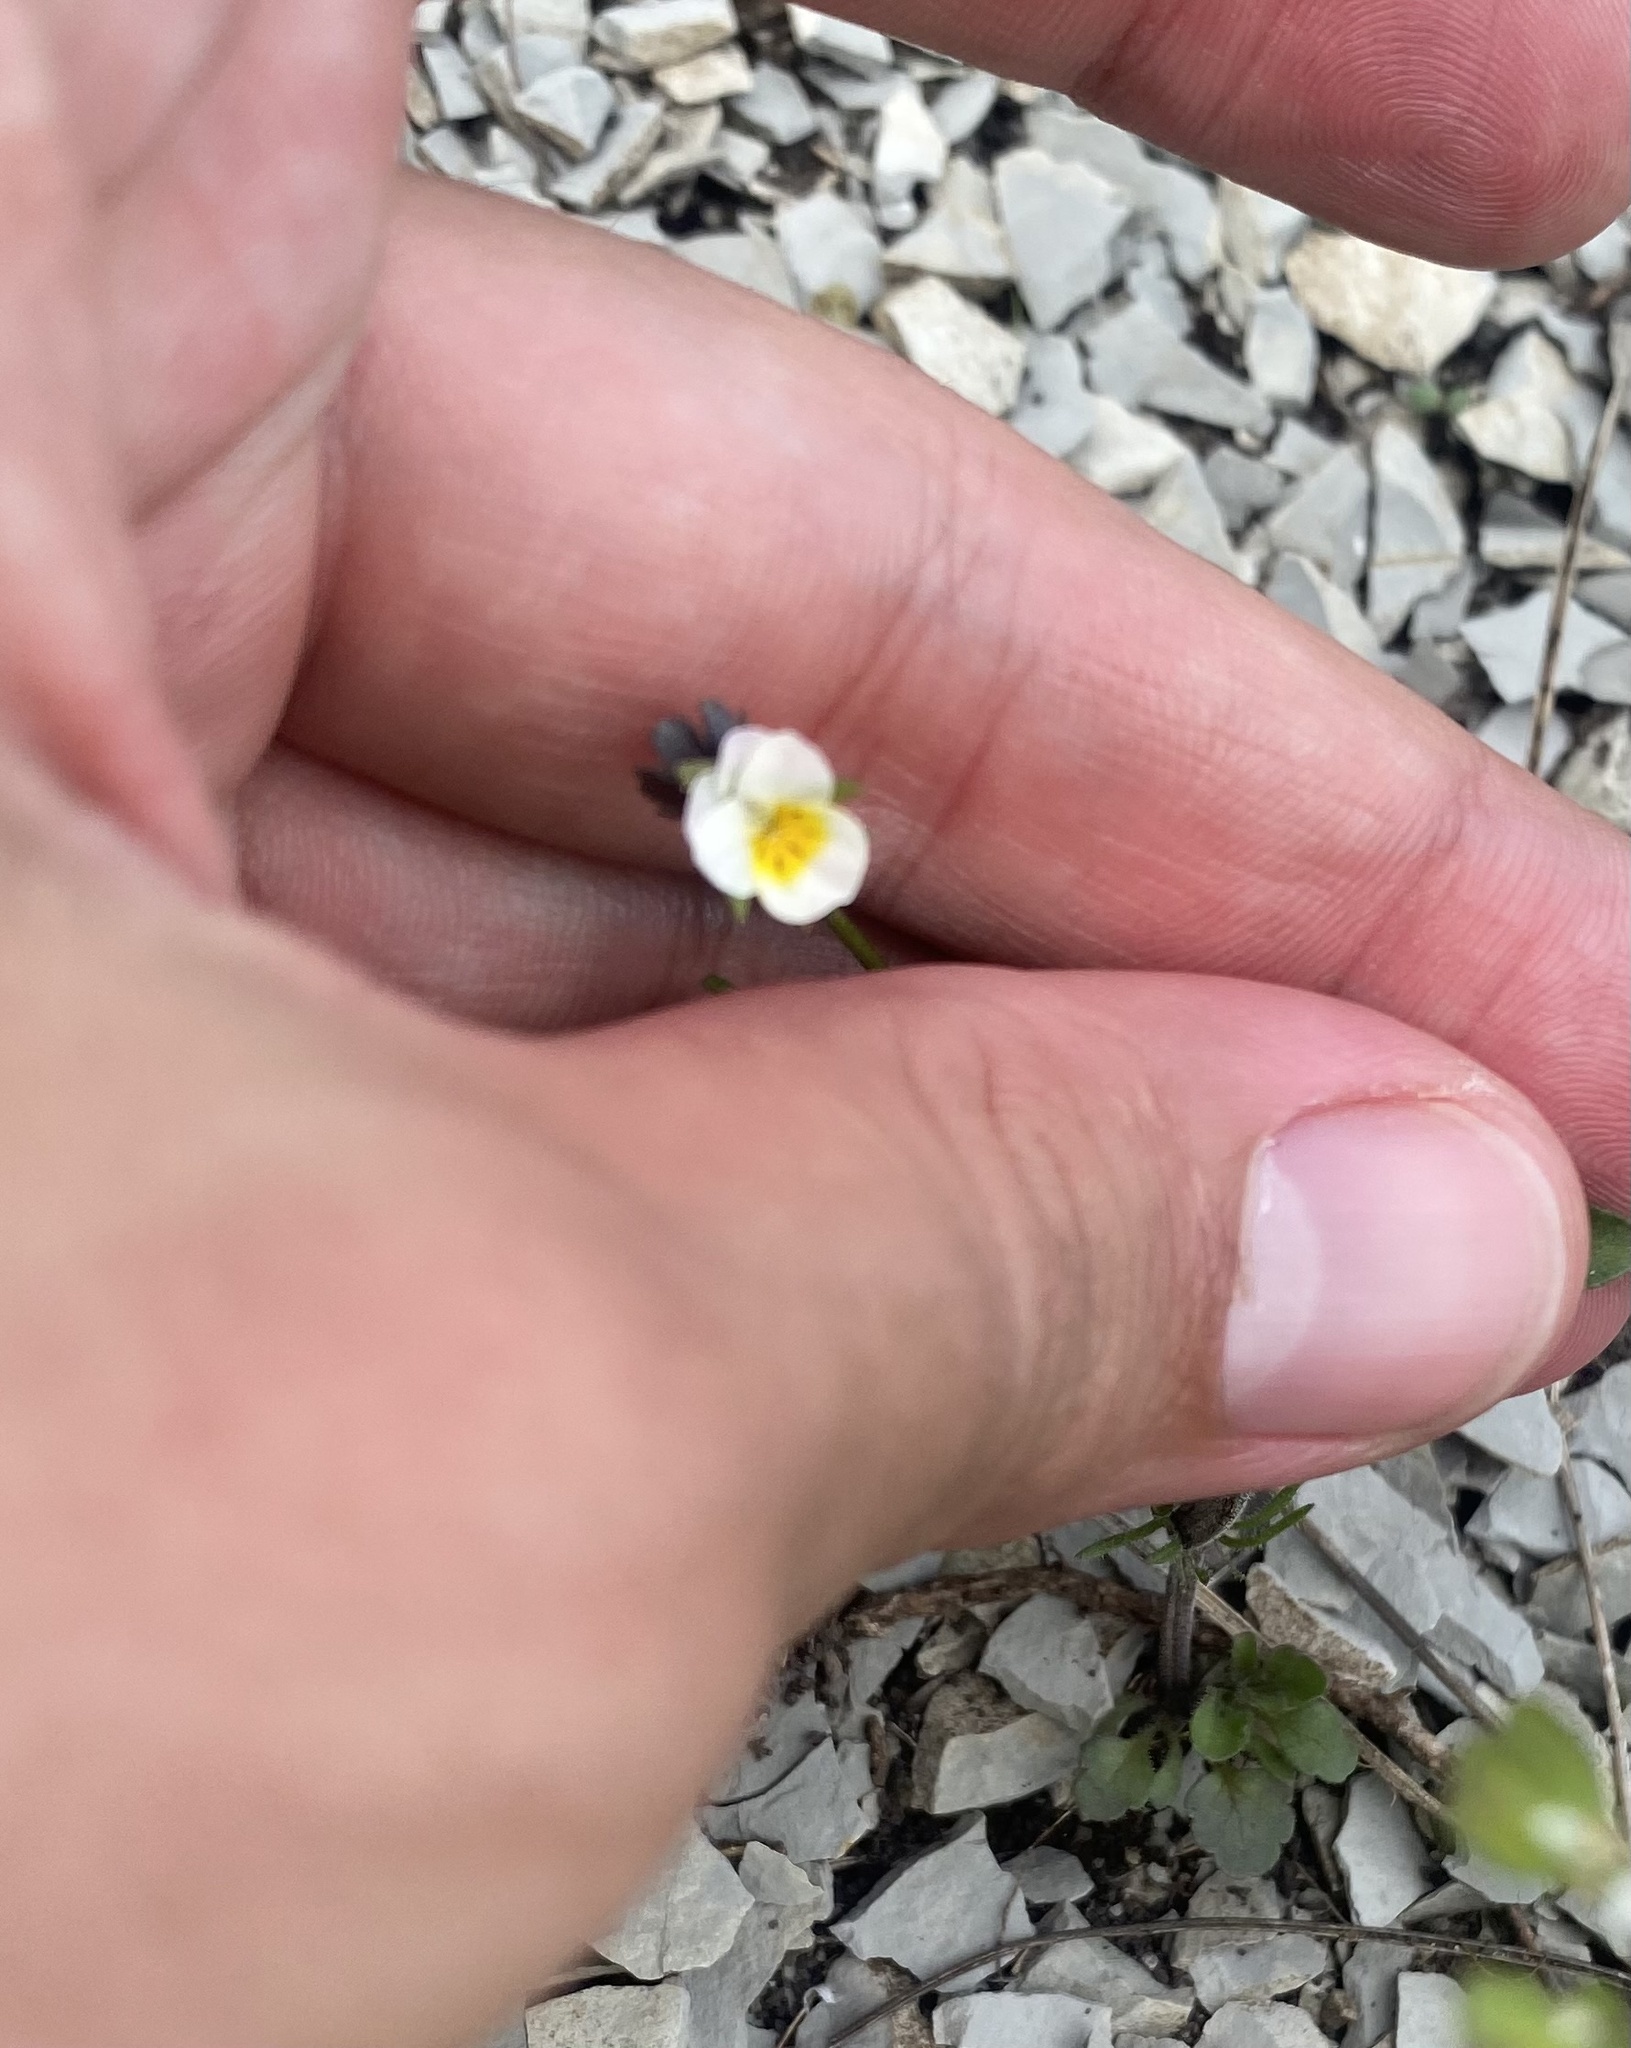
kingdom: Plantae
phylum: Tracheophyta
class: Magnoliopsida
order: Malpighiales
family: Violaceae
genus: Viola
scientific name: Viola kitaibeliana
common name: Dwarf pansy
